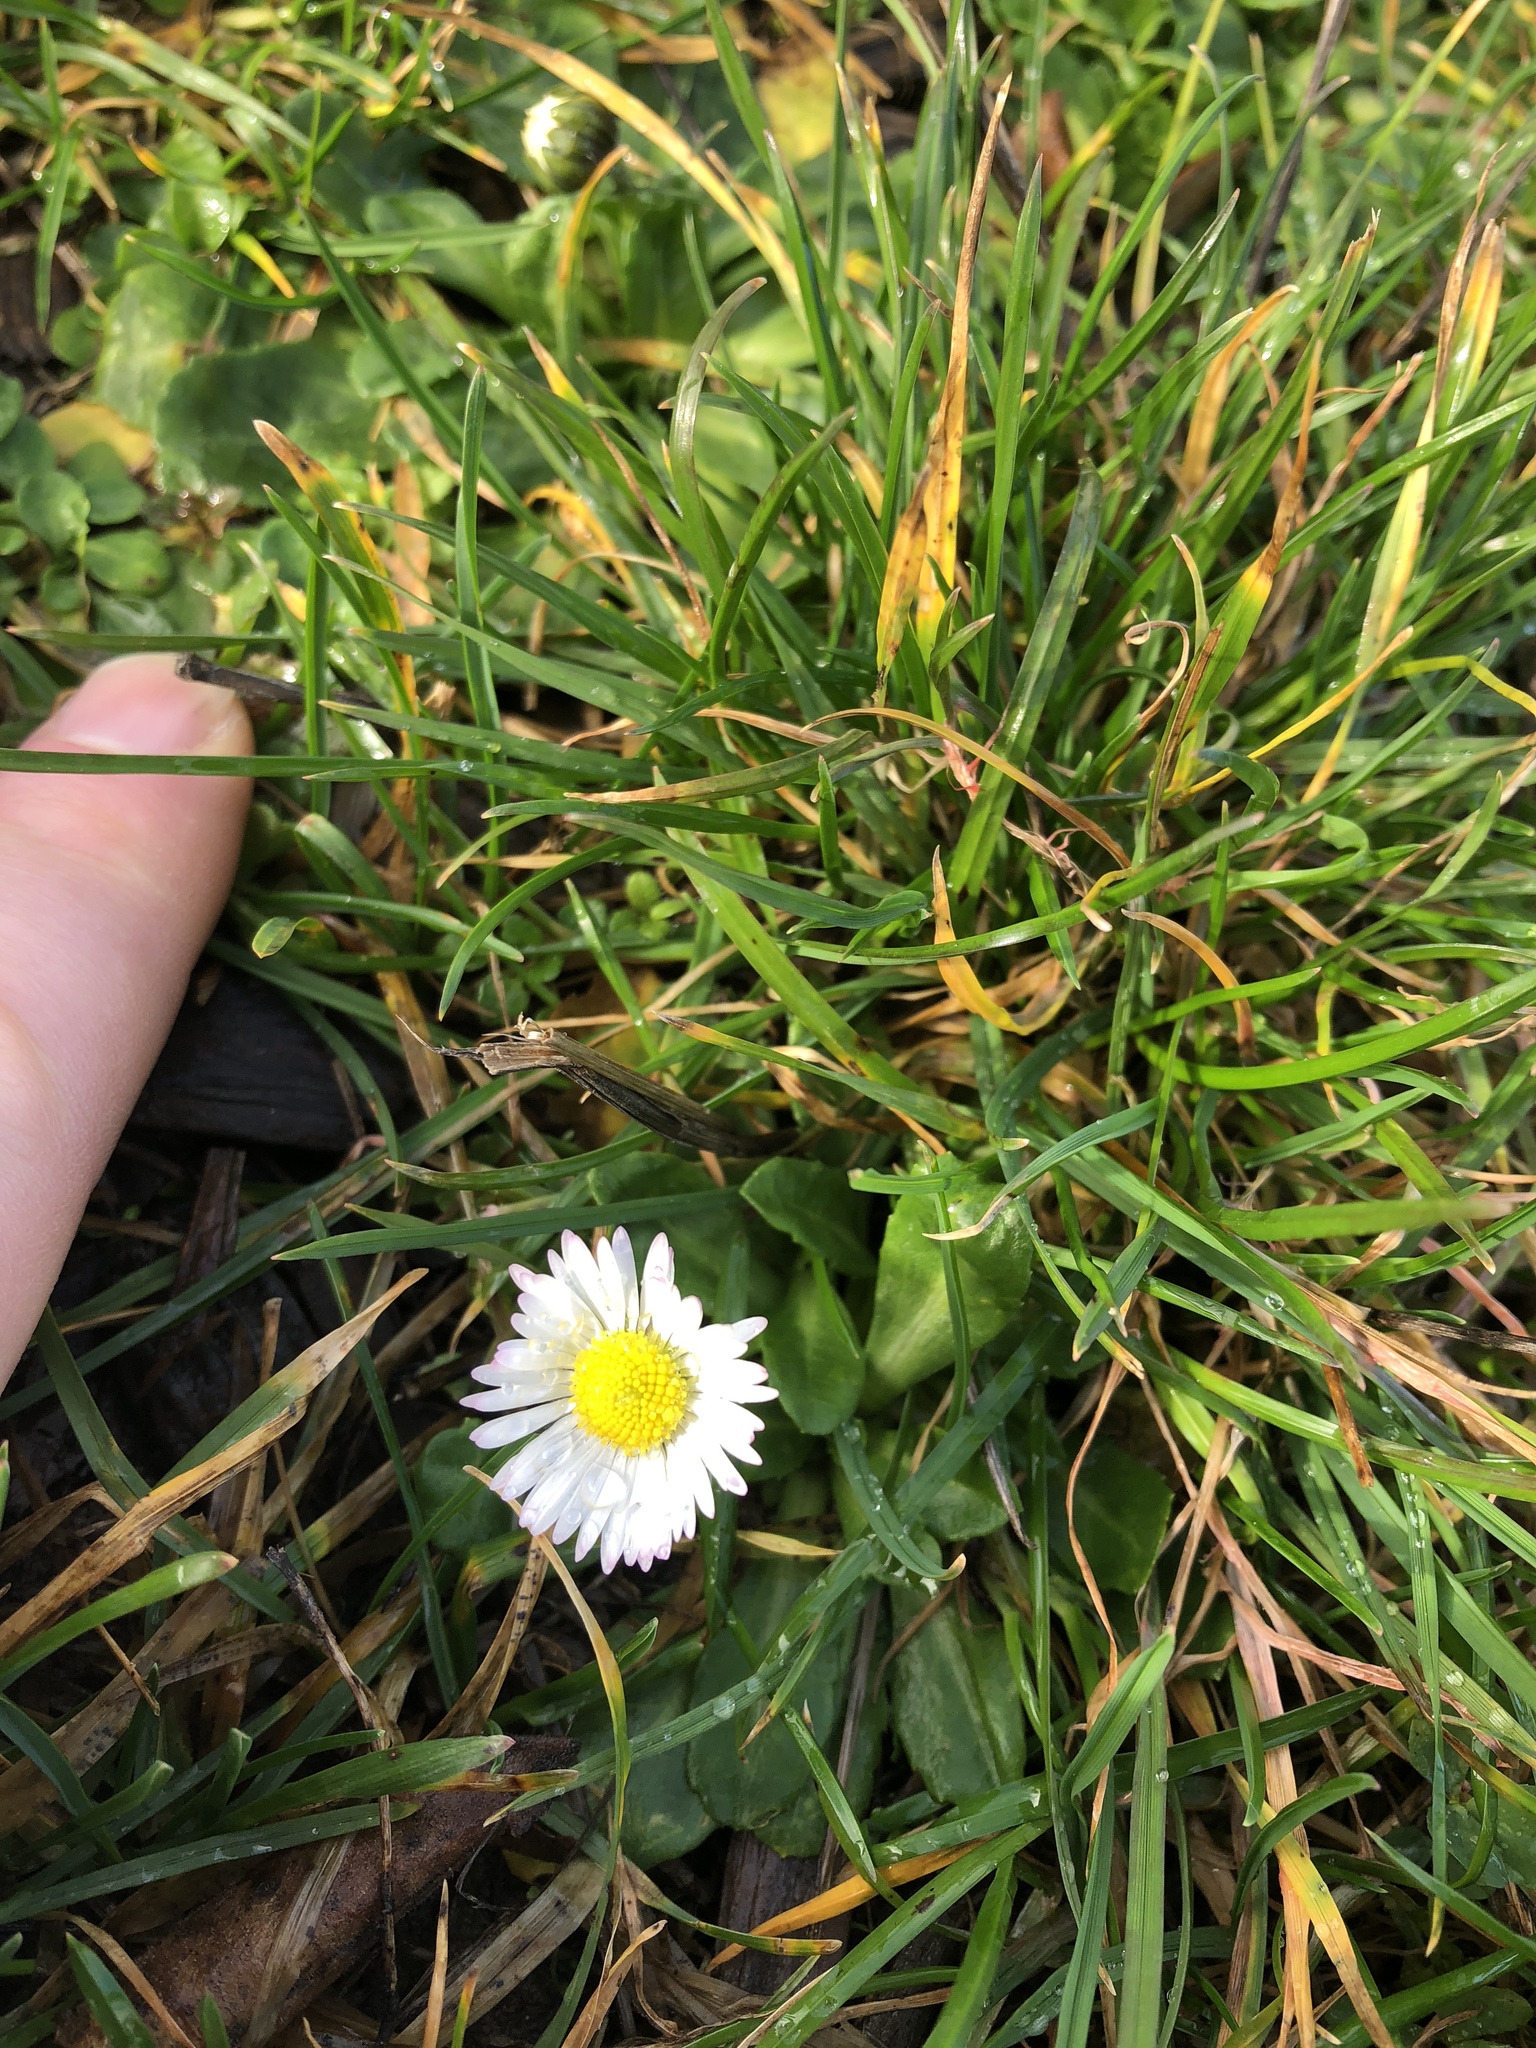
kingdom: Plantae
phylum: Tracheophyta
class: Magnoliopsida
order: Asterales
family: Asteraceae
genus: Bellis
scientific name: Bellis perennis
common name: Lawndaisy
